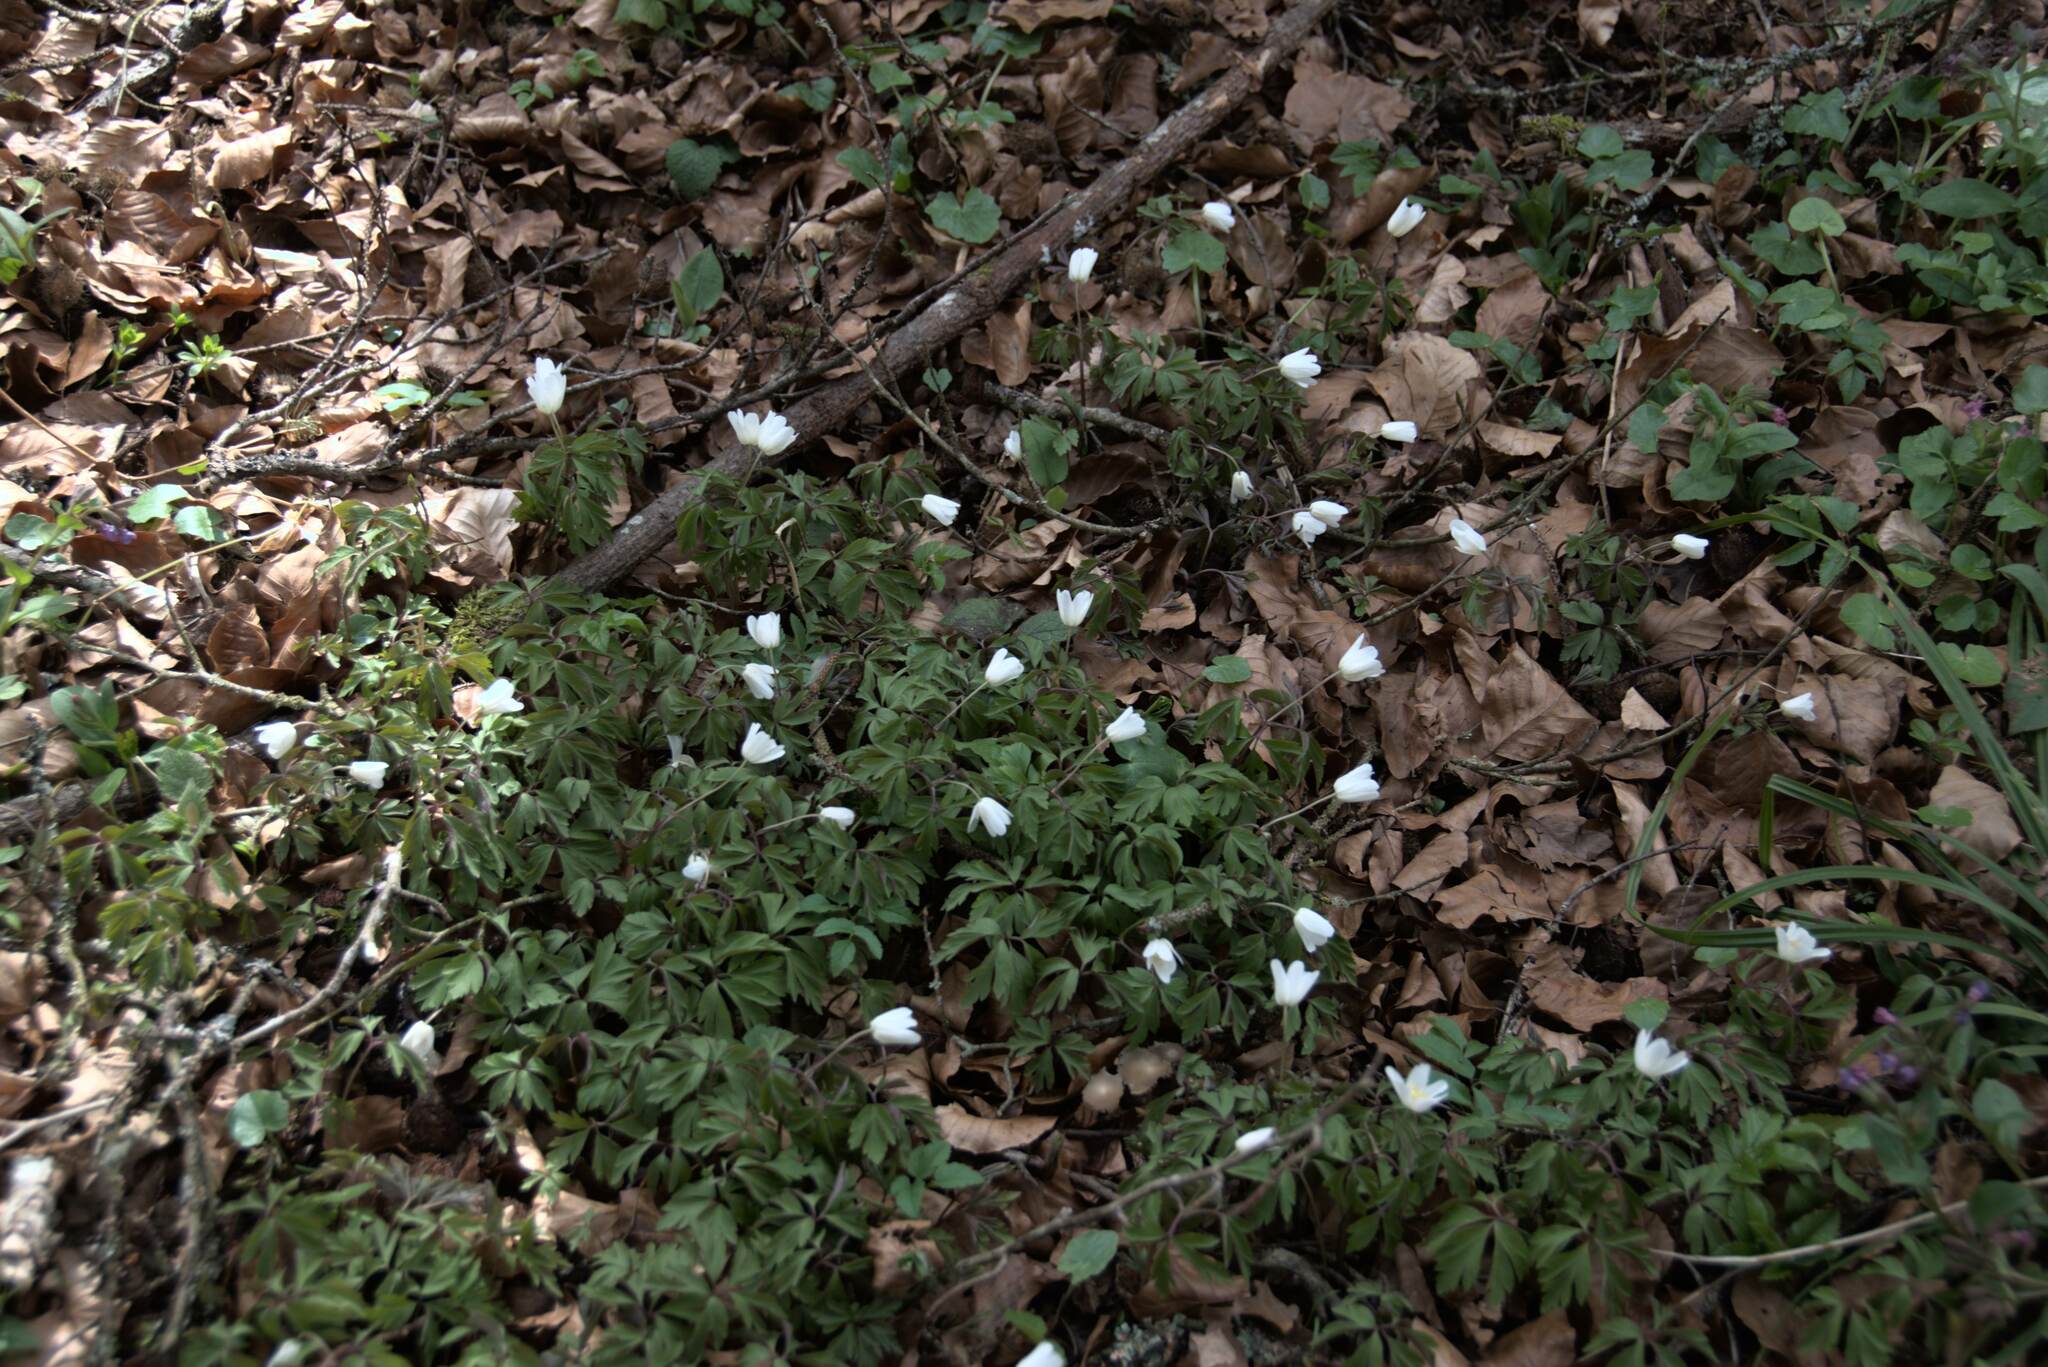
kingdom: Plantae
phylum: Tracheophyta
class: Magnoliopsida
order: Ranunculales
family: Ranunculaceae
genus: Anemone
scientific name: Anemone nemorosa
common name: Wood anemone
